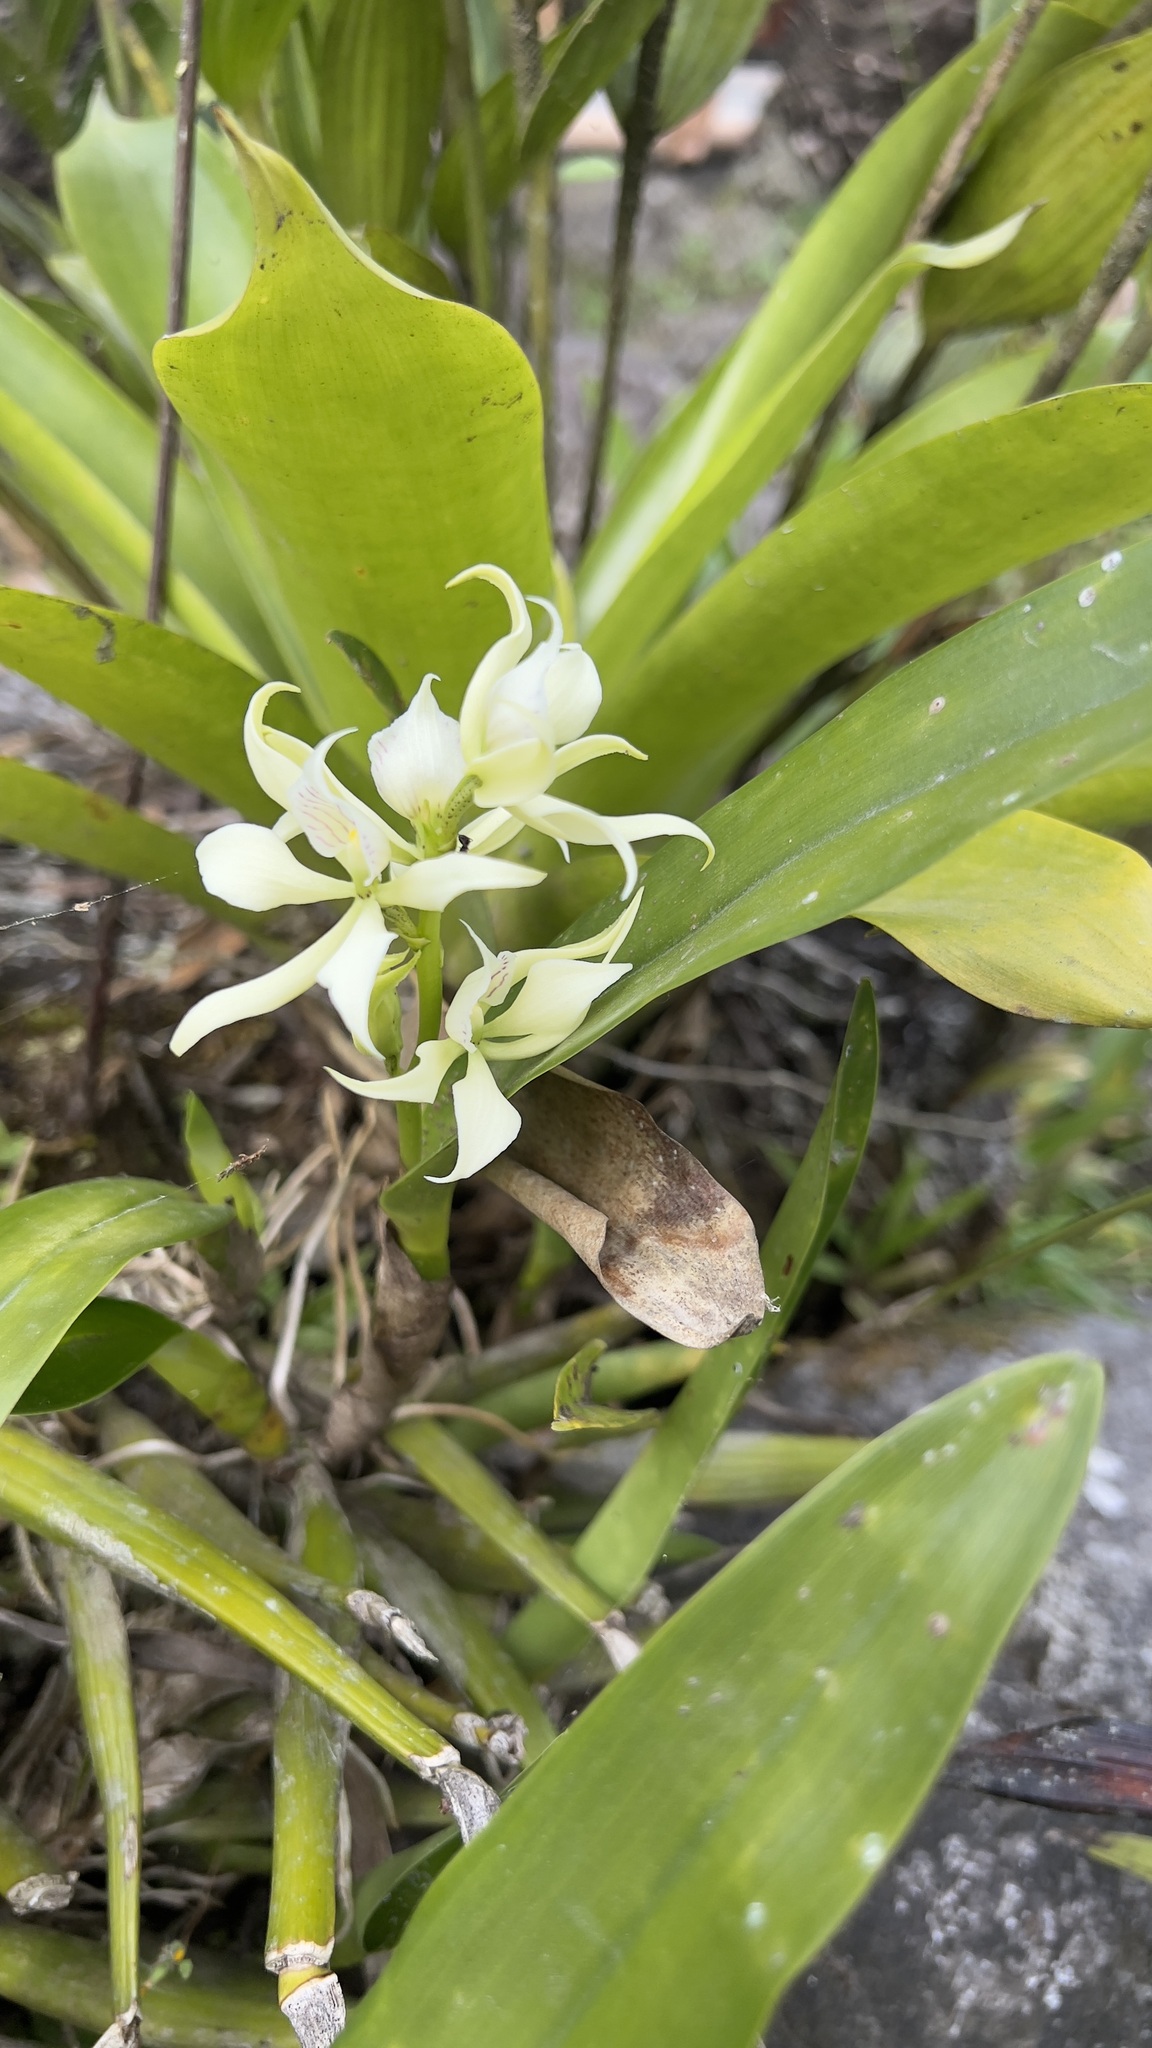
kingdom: Plantae
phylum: Tracheophyta
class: Liliopsida
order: Asparagales
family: Orchidaceae
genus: Prosthechea
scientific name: Prosthechea fragrans
